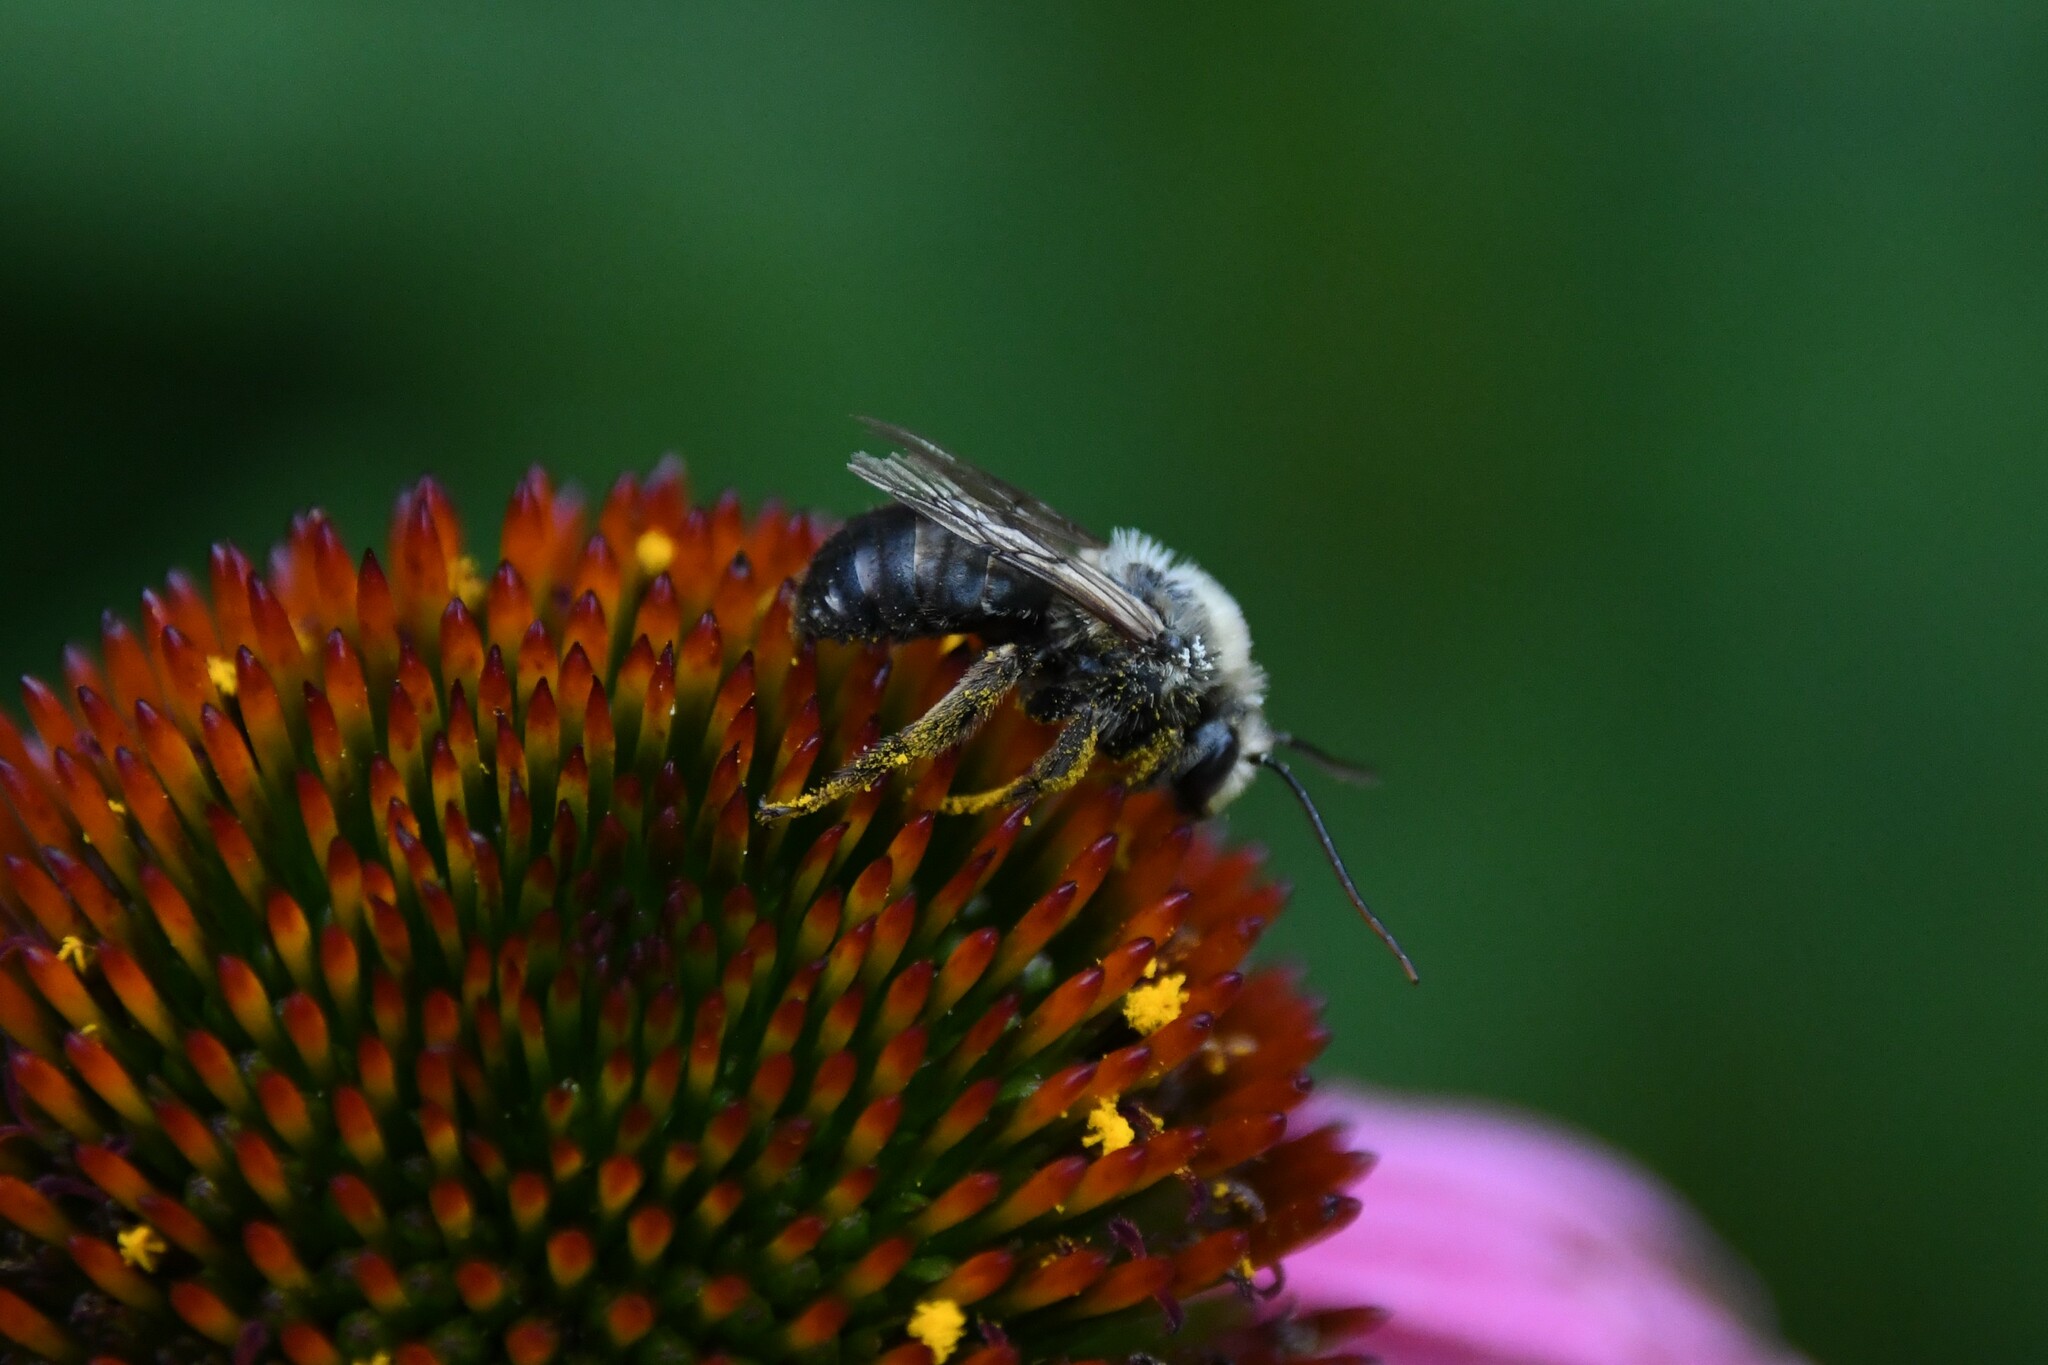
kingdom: Animalia
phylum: Arthropoda
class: Insecta
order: Hymenoptera
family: Apidae
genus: Melissodes
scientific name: Melissodes desponsus
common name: Thistle long-horned bee
